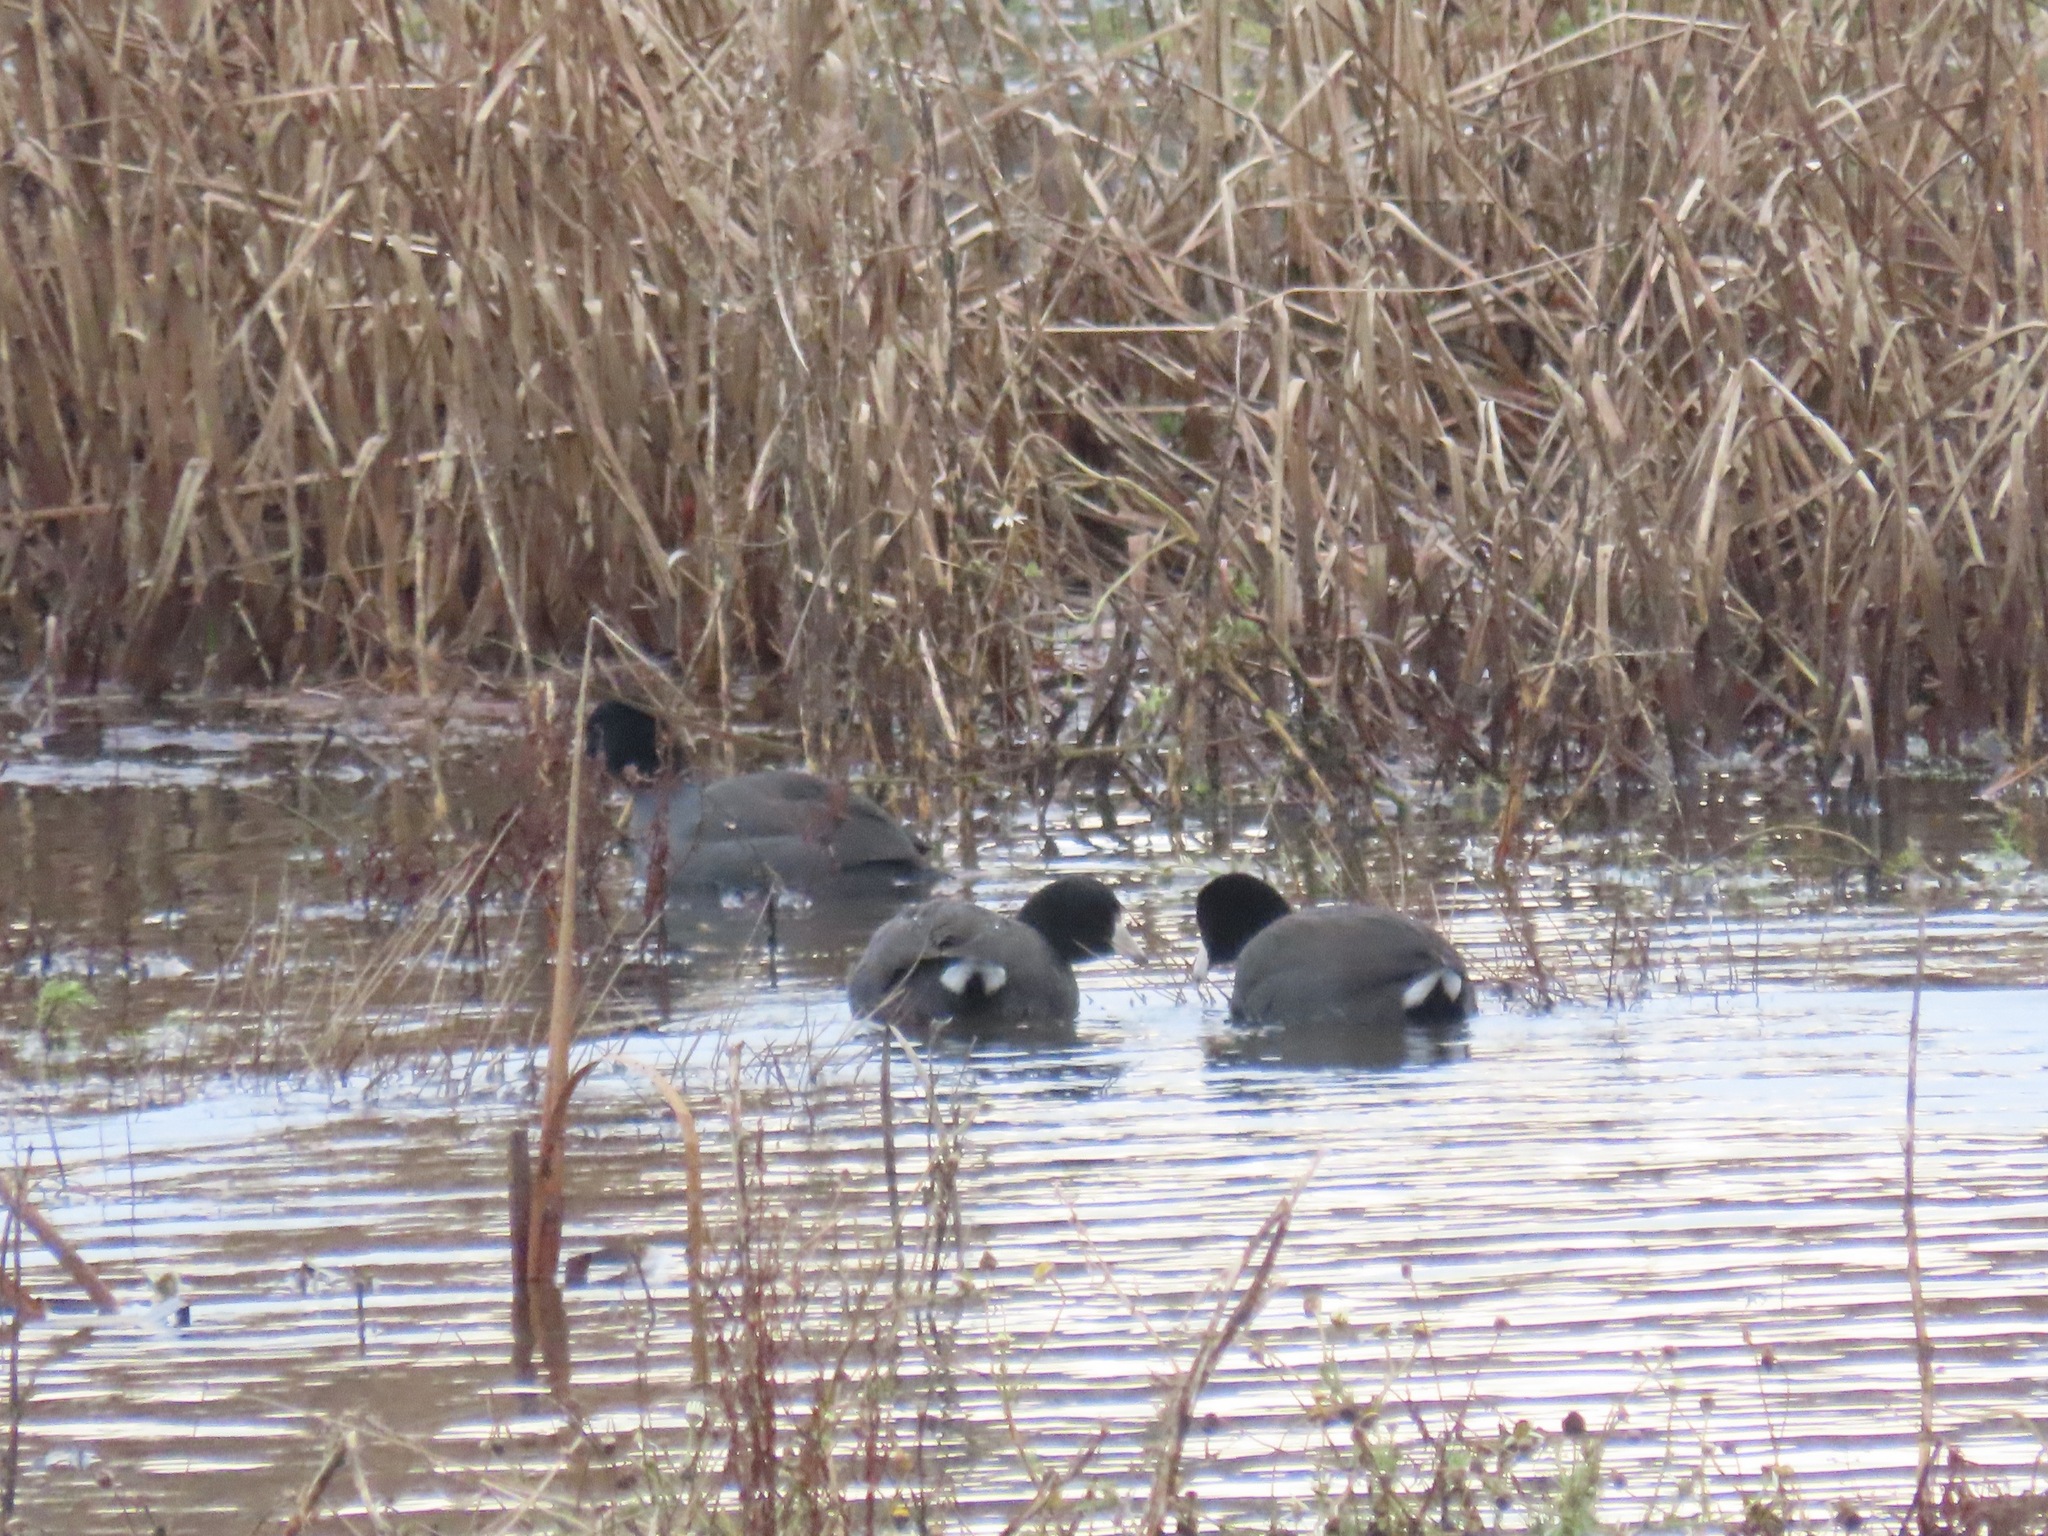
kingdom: Animalia
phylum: Chordata
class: Aves
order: Gruiformes
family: Rallidae
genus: Fulica
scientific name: Fulica americana
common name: American coot
